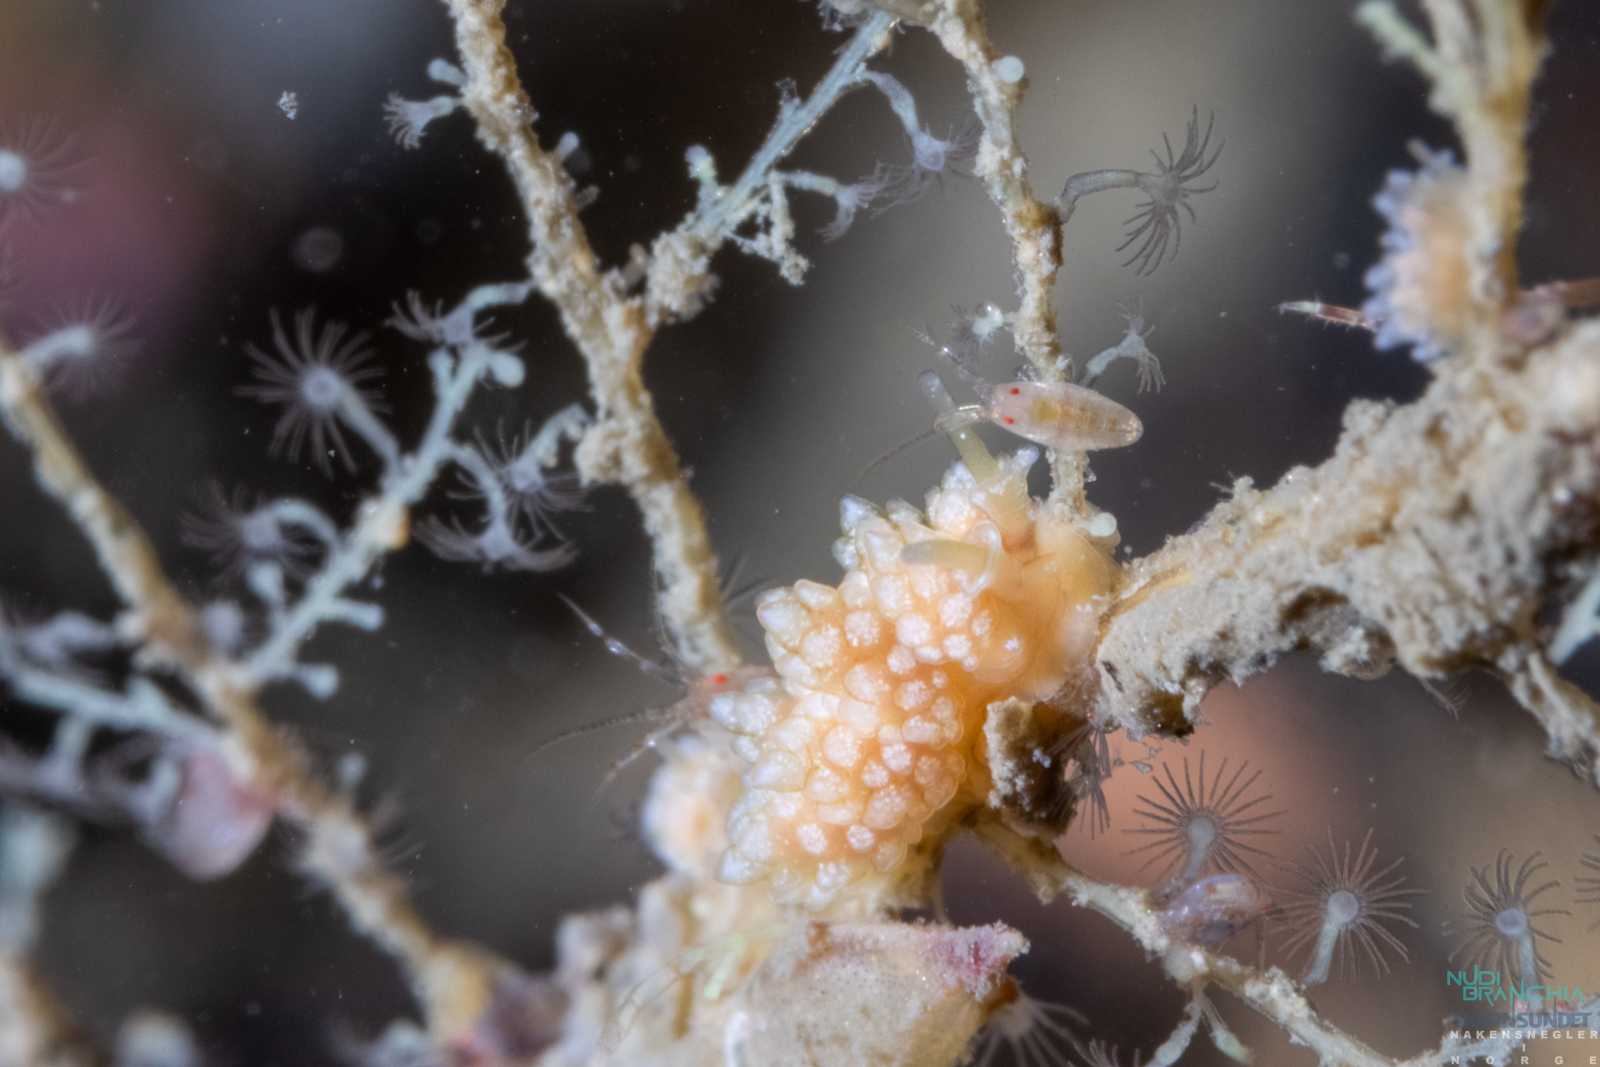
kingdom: Animalia
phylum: Mollusca
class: Gastropoda
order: Nudibranchia
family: Dotidae
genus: Doto
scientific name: Doto fragilis
